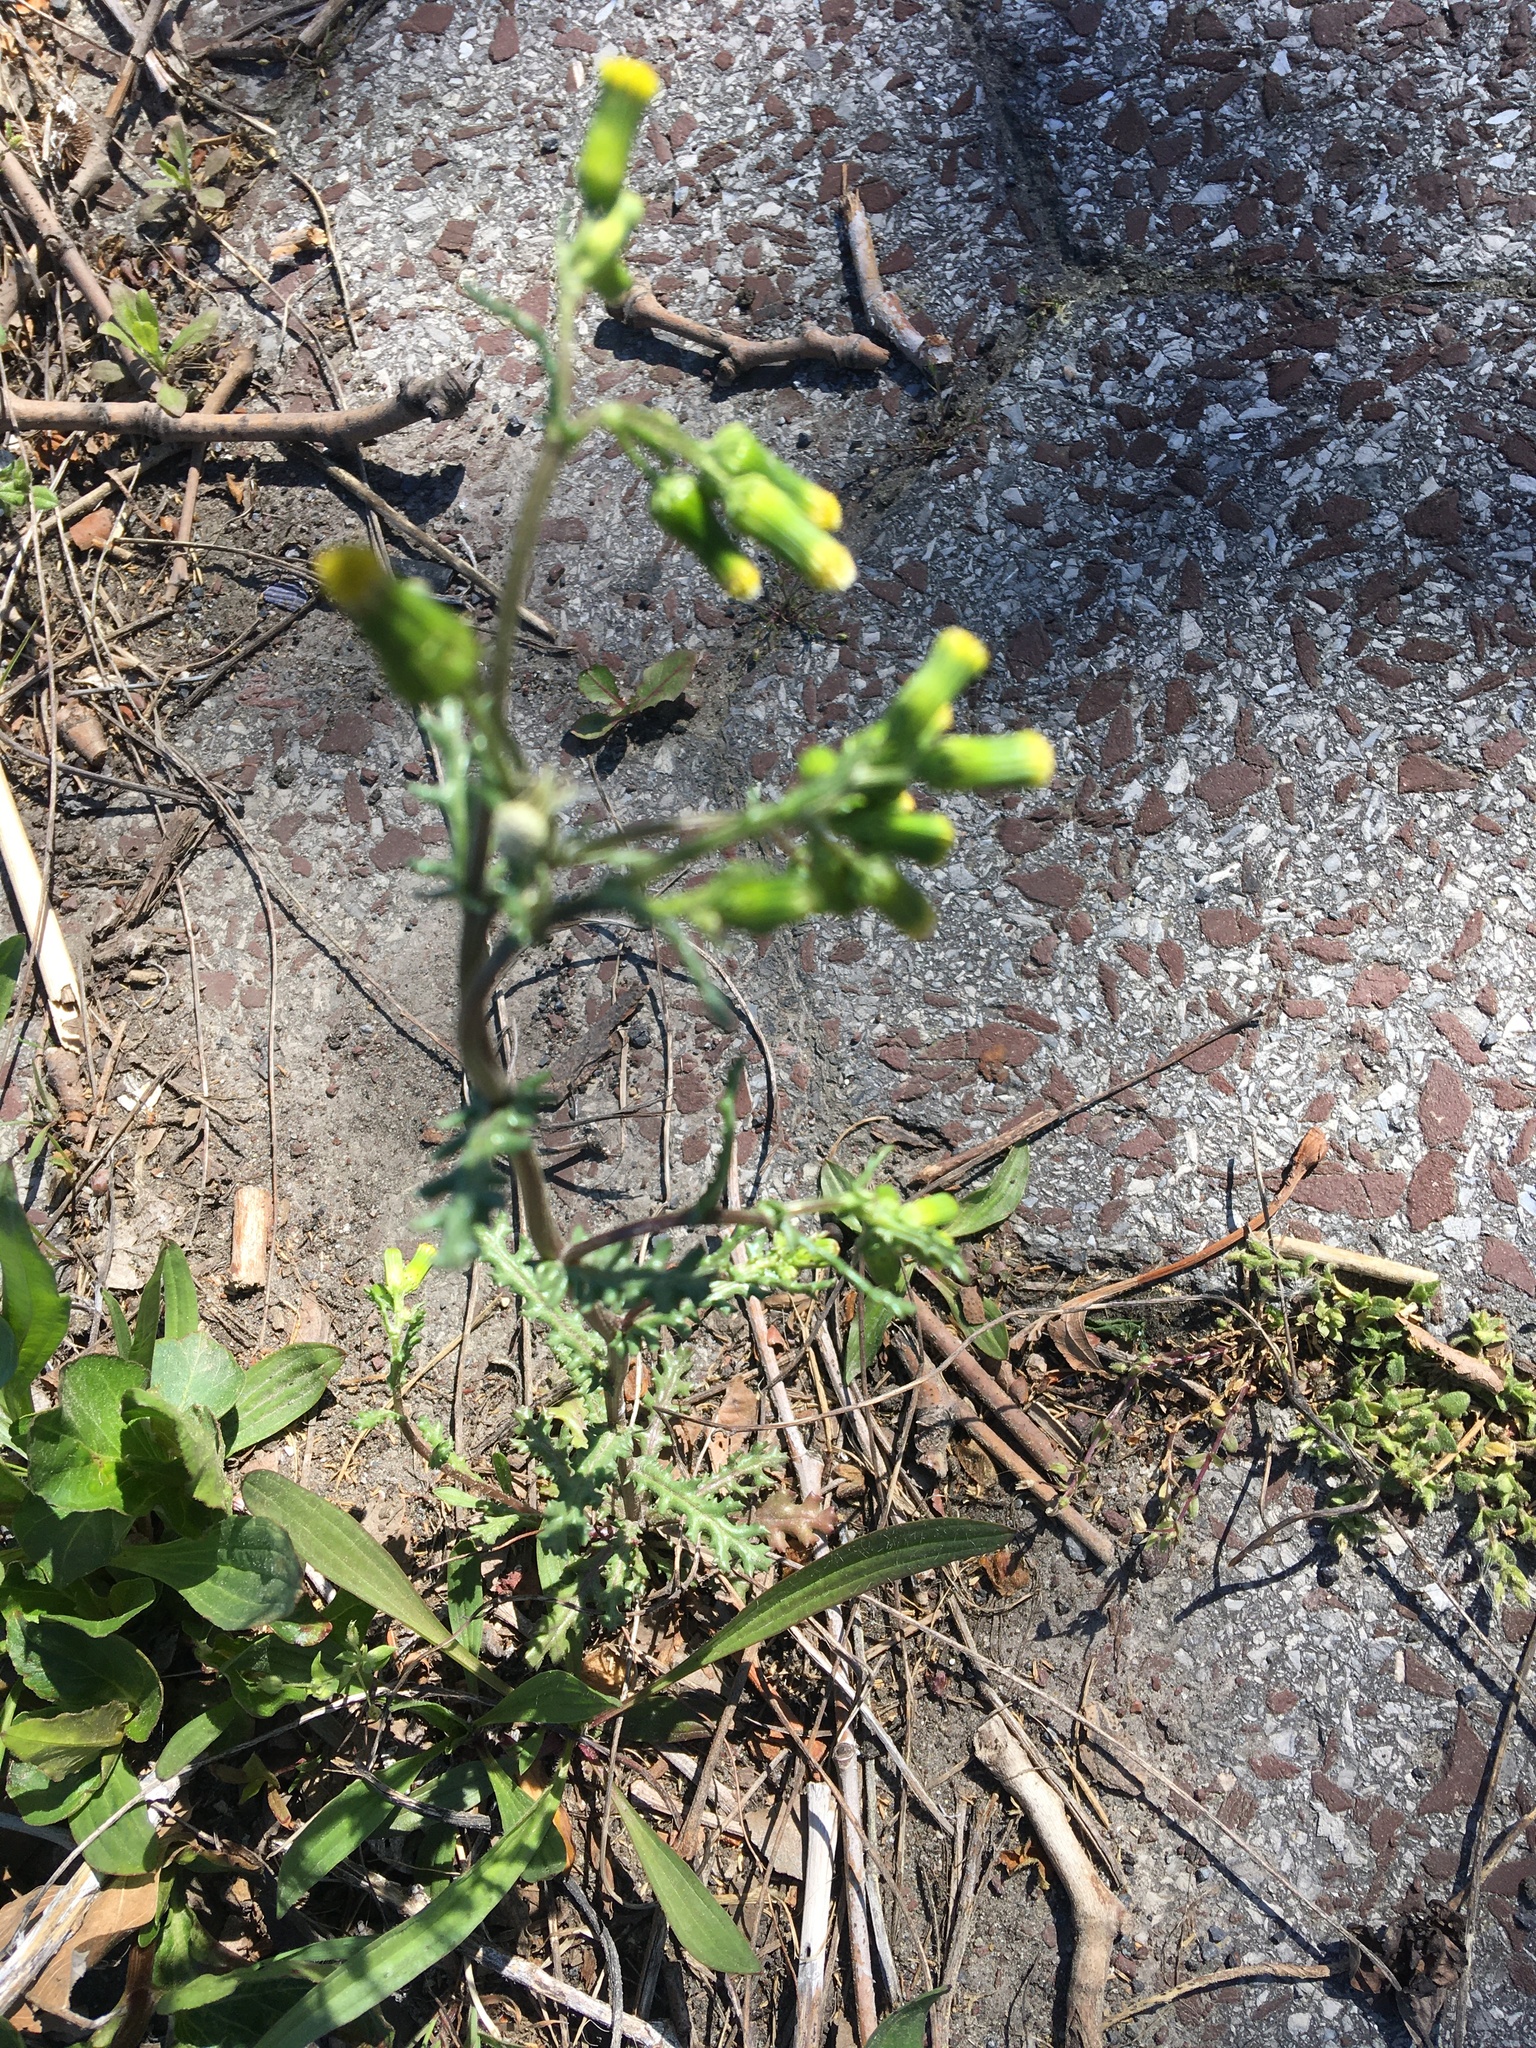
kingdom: Plantae
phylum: Tracheophyta
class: Magnoliopsida
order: Asterales
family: Asteraceae
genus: Senecio
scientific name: Senecio vulgaris
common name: Old-man-in-the-spring
